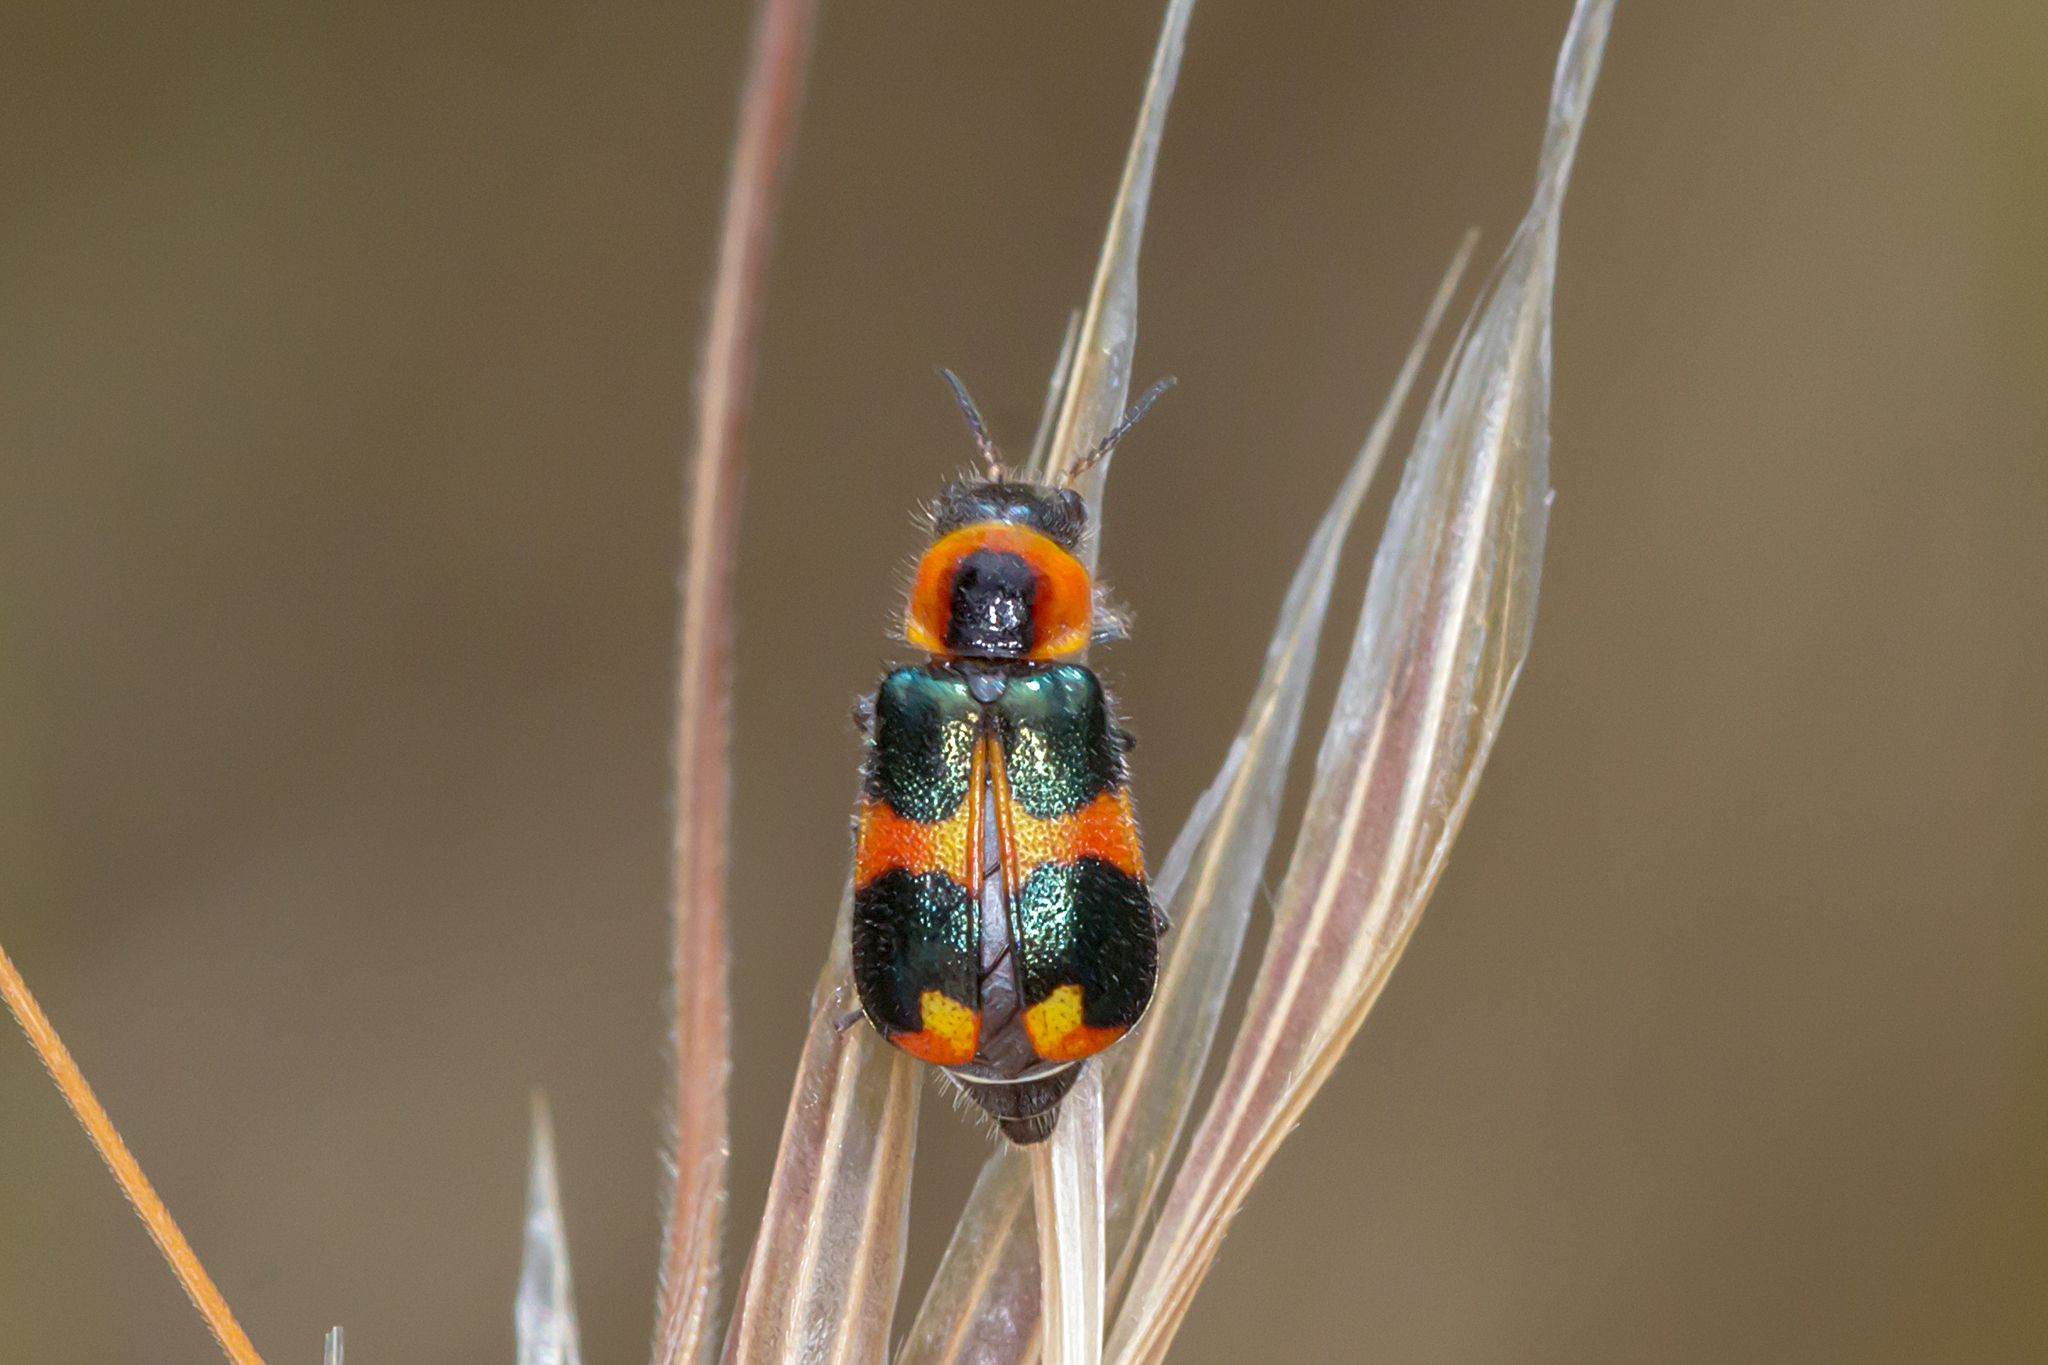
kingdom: Animalia
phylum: Arthropoda
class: Insecta
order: Coleoptera
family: Melyridae
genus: Dicranolaius
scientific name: Dicranolaius
